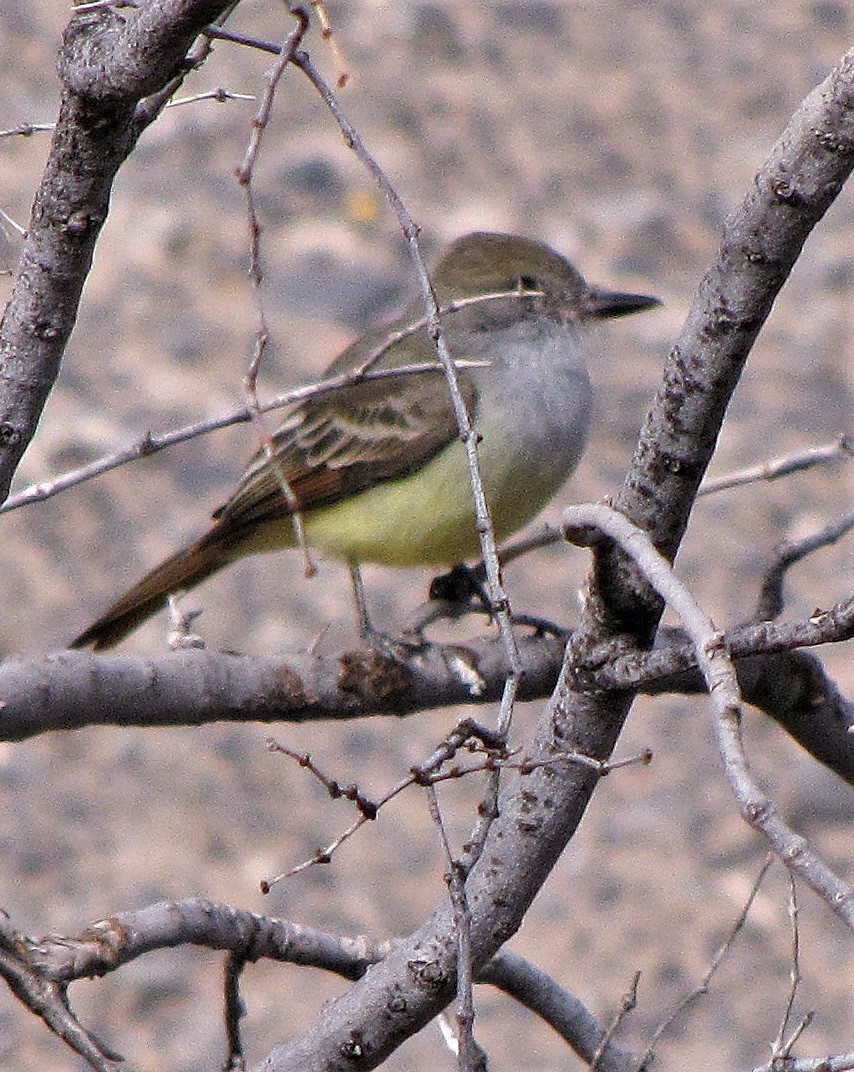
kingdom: Animalia
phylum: Chordata
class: Aves
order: Passeriformes
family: Tyrannidae
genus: Myiarchus
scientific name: Myiarchus tyrannulus
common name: Brown-crested flycatcher
